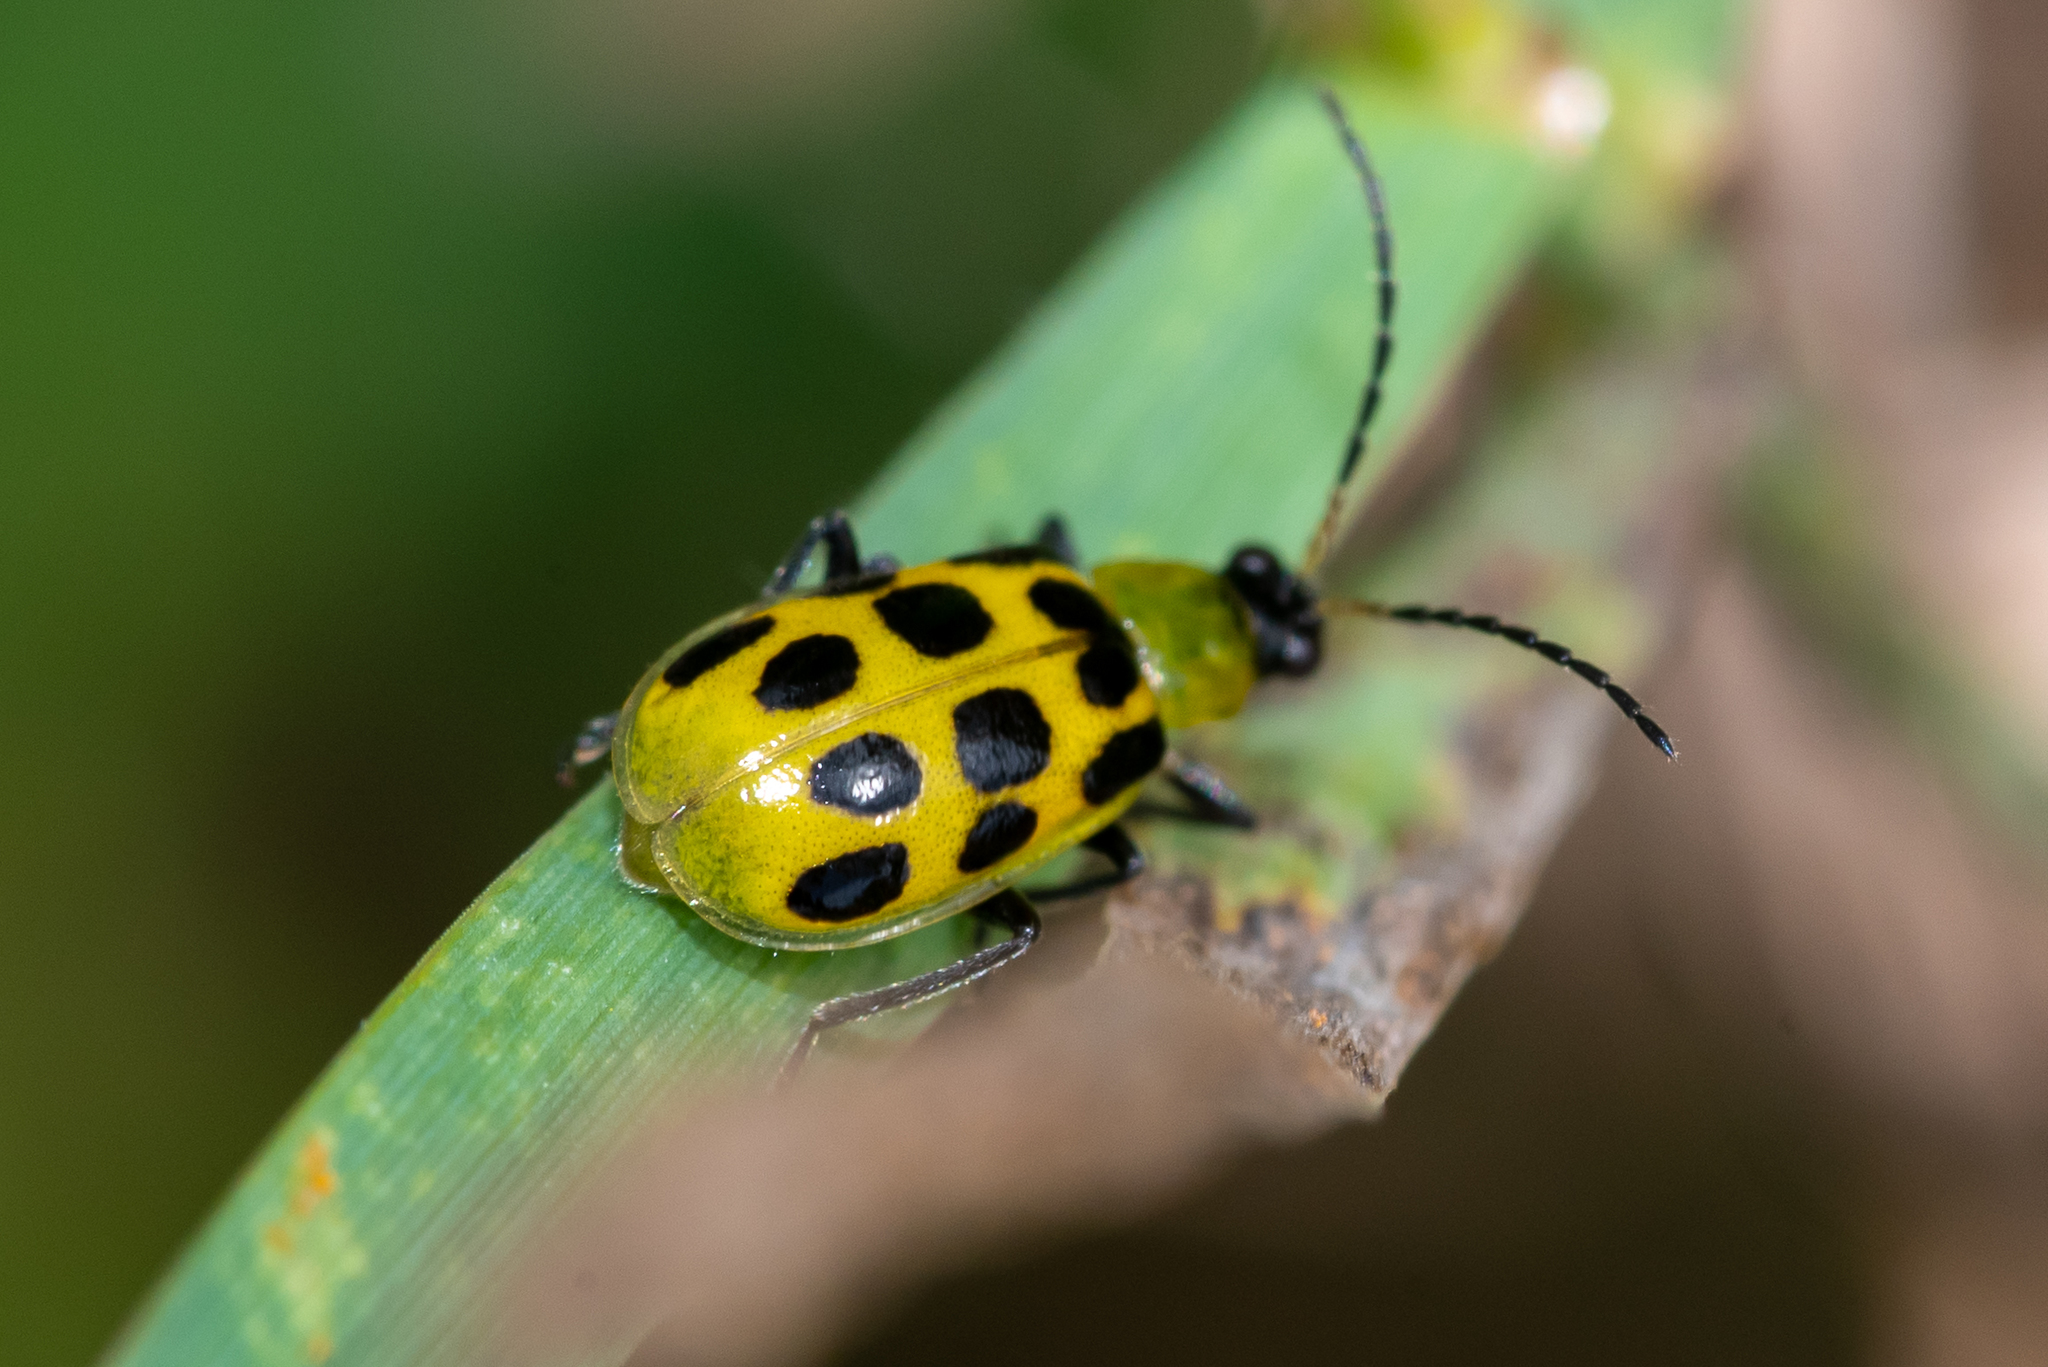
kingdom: Animalia
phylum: Arthropoda
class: Insecta
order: Coleoptera
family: Chrysomelidae
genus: Diabrotica
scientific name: Diabrotica undecimpunctata
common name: Spotted cucumber beetle
